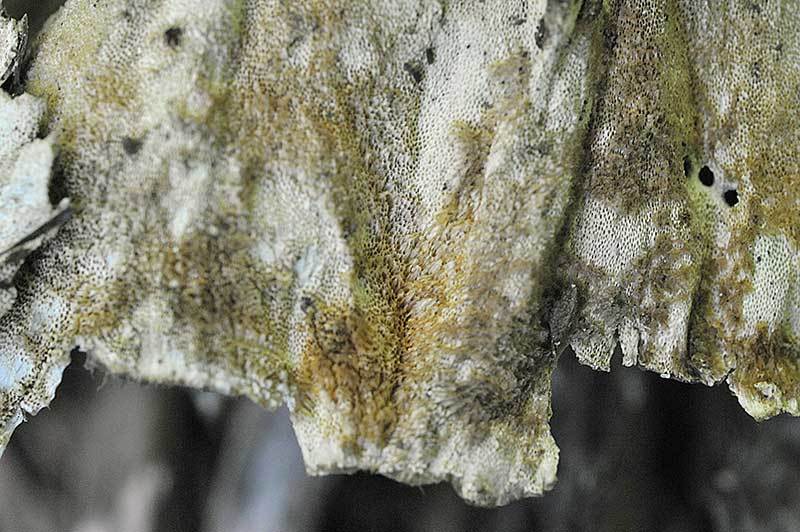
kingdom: Fungi
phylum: Basidiomycota
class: Agaricomycetes
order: Polyporales
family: Polyporaceae
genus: Trametes
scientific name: Trametes versicolor
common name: Turkeytail
